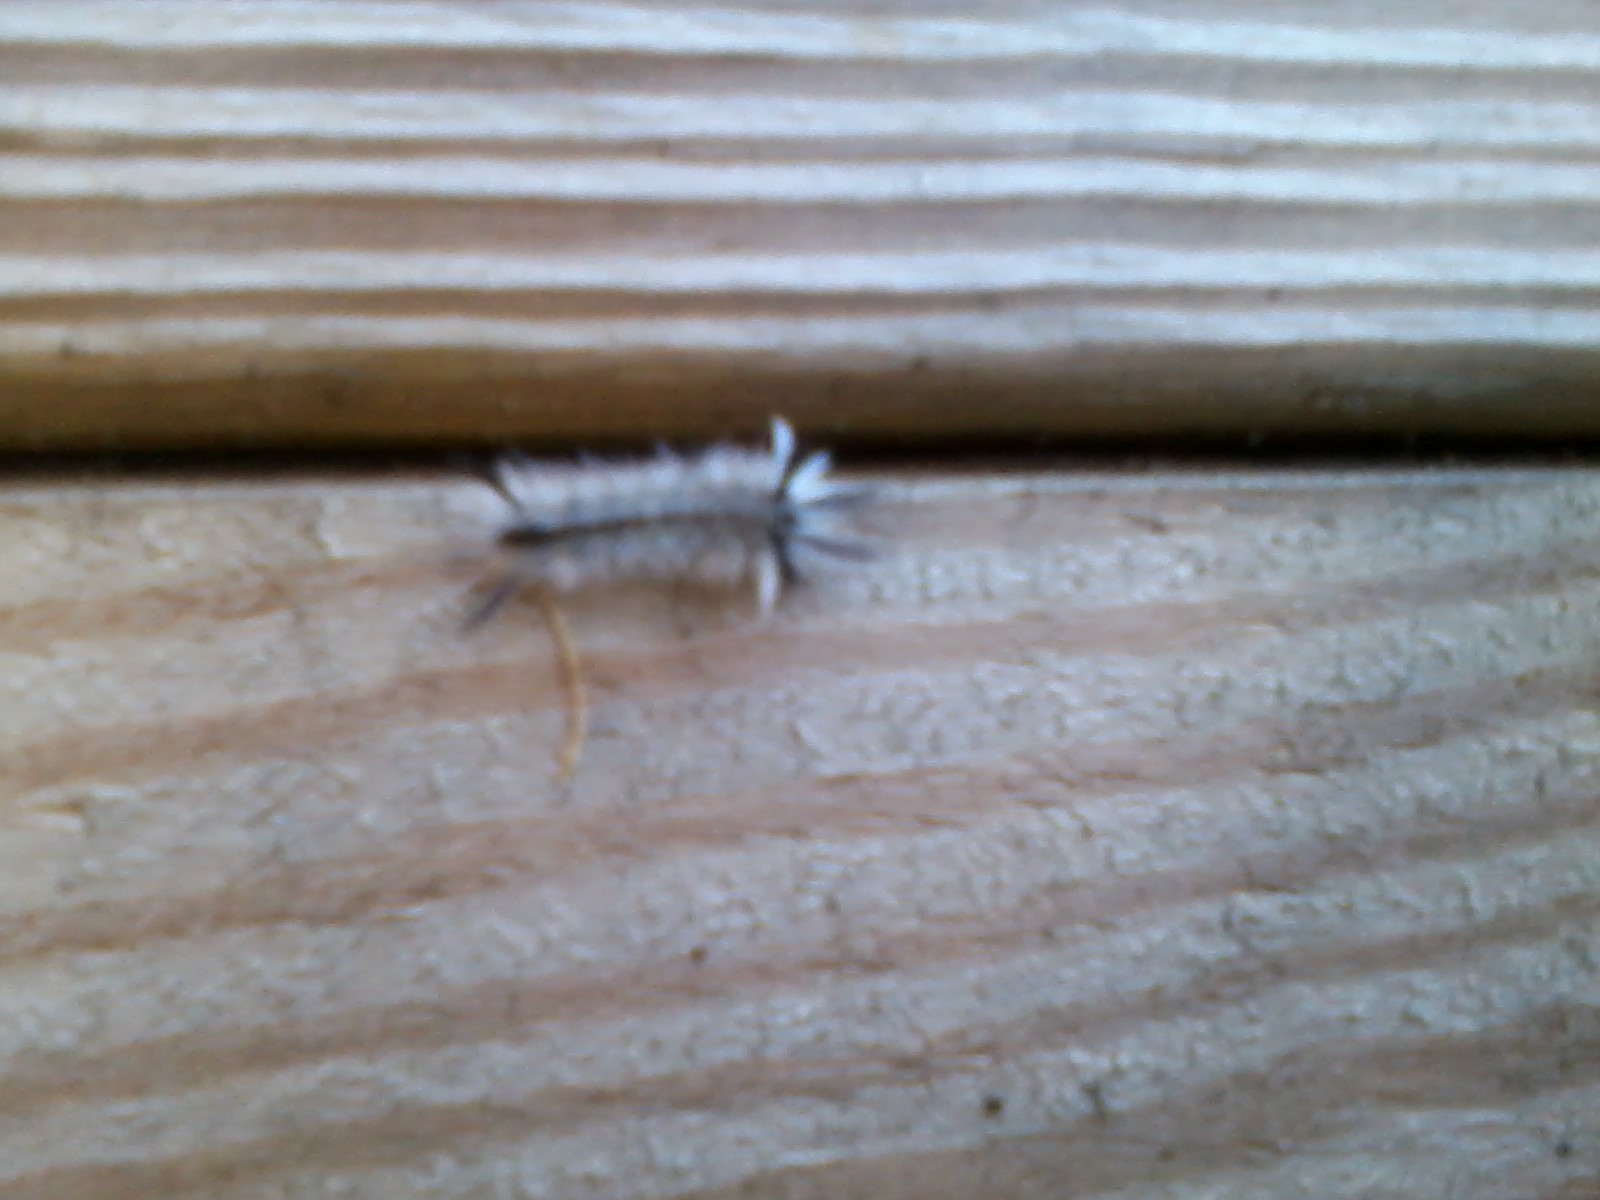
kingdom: Animalia
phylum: Arthropoda
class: Insecta
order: Lepidoptera
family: Erebidae
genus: Halysidota
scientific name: Halysidota tessellaris
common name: Banded tussock moth
